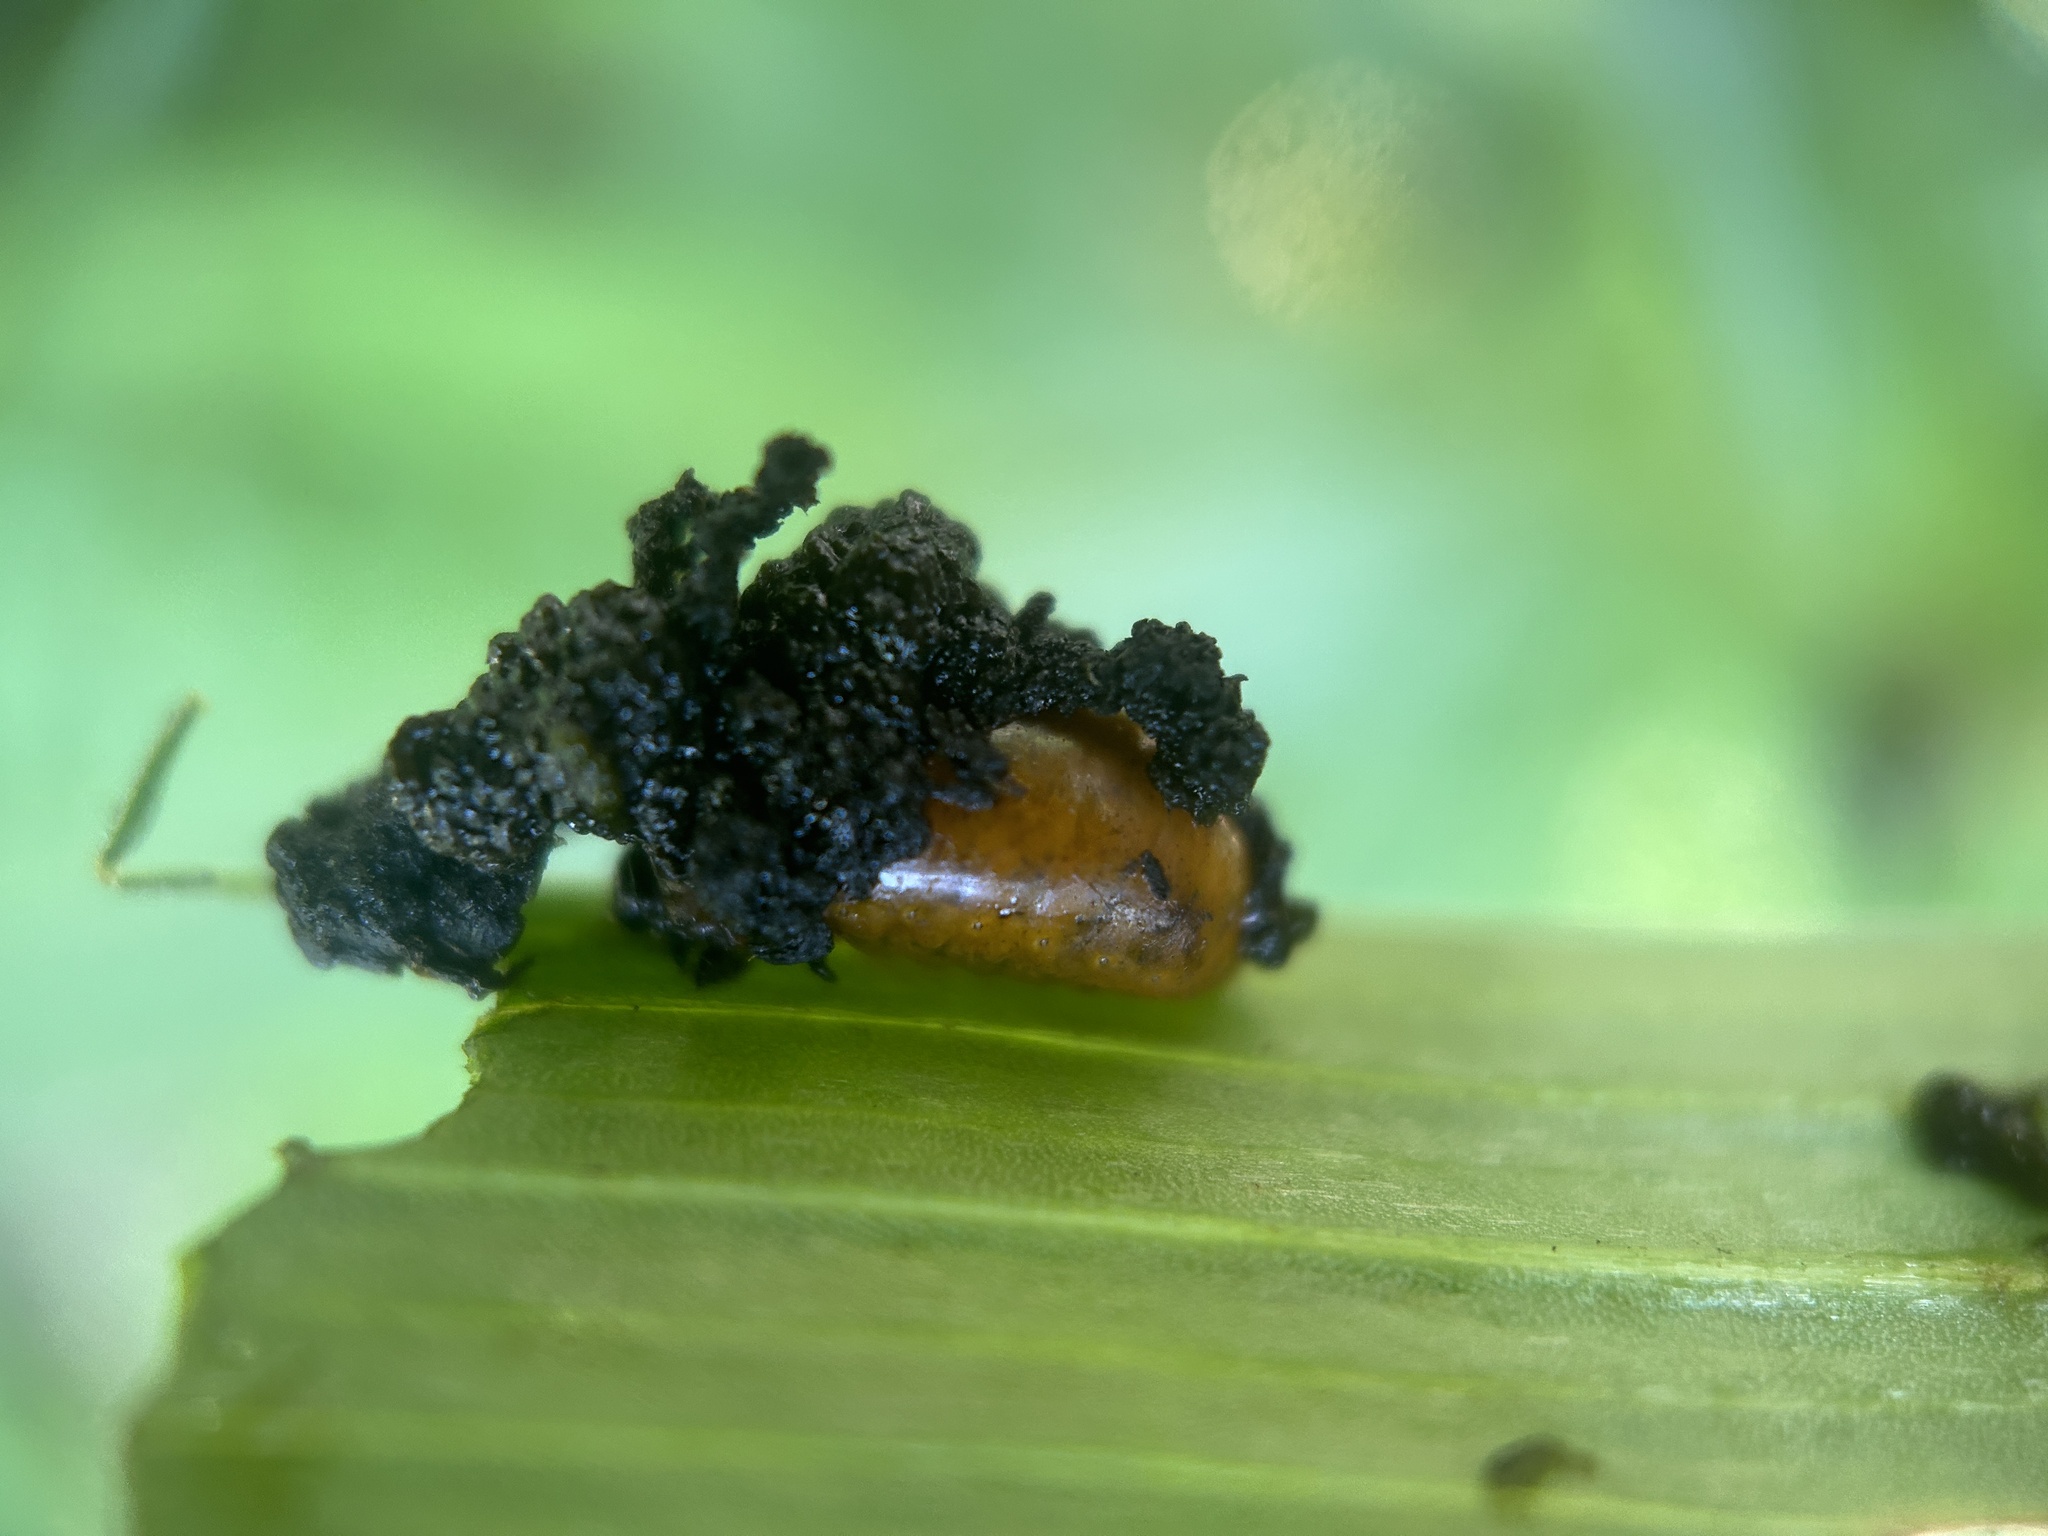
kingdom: Animalia
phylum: Arthropoda
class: Insecta
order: Coleoptera
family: Chrysomelidae
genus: Lilioceris
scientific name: Lilioceris lilii
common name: Lily beetle
